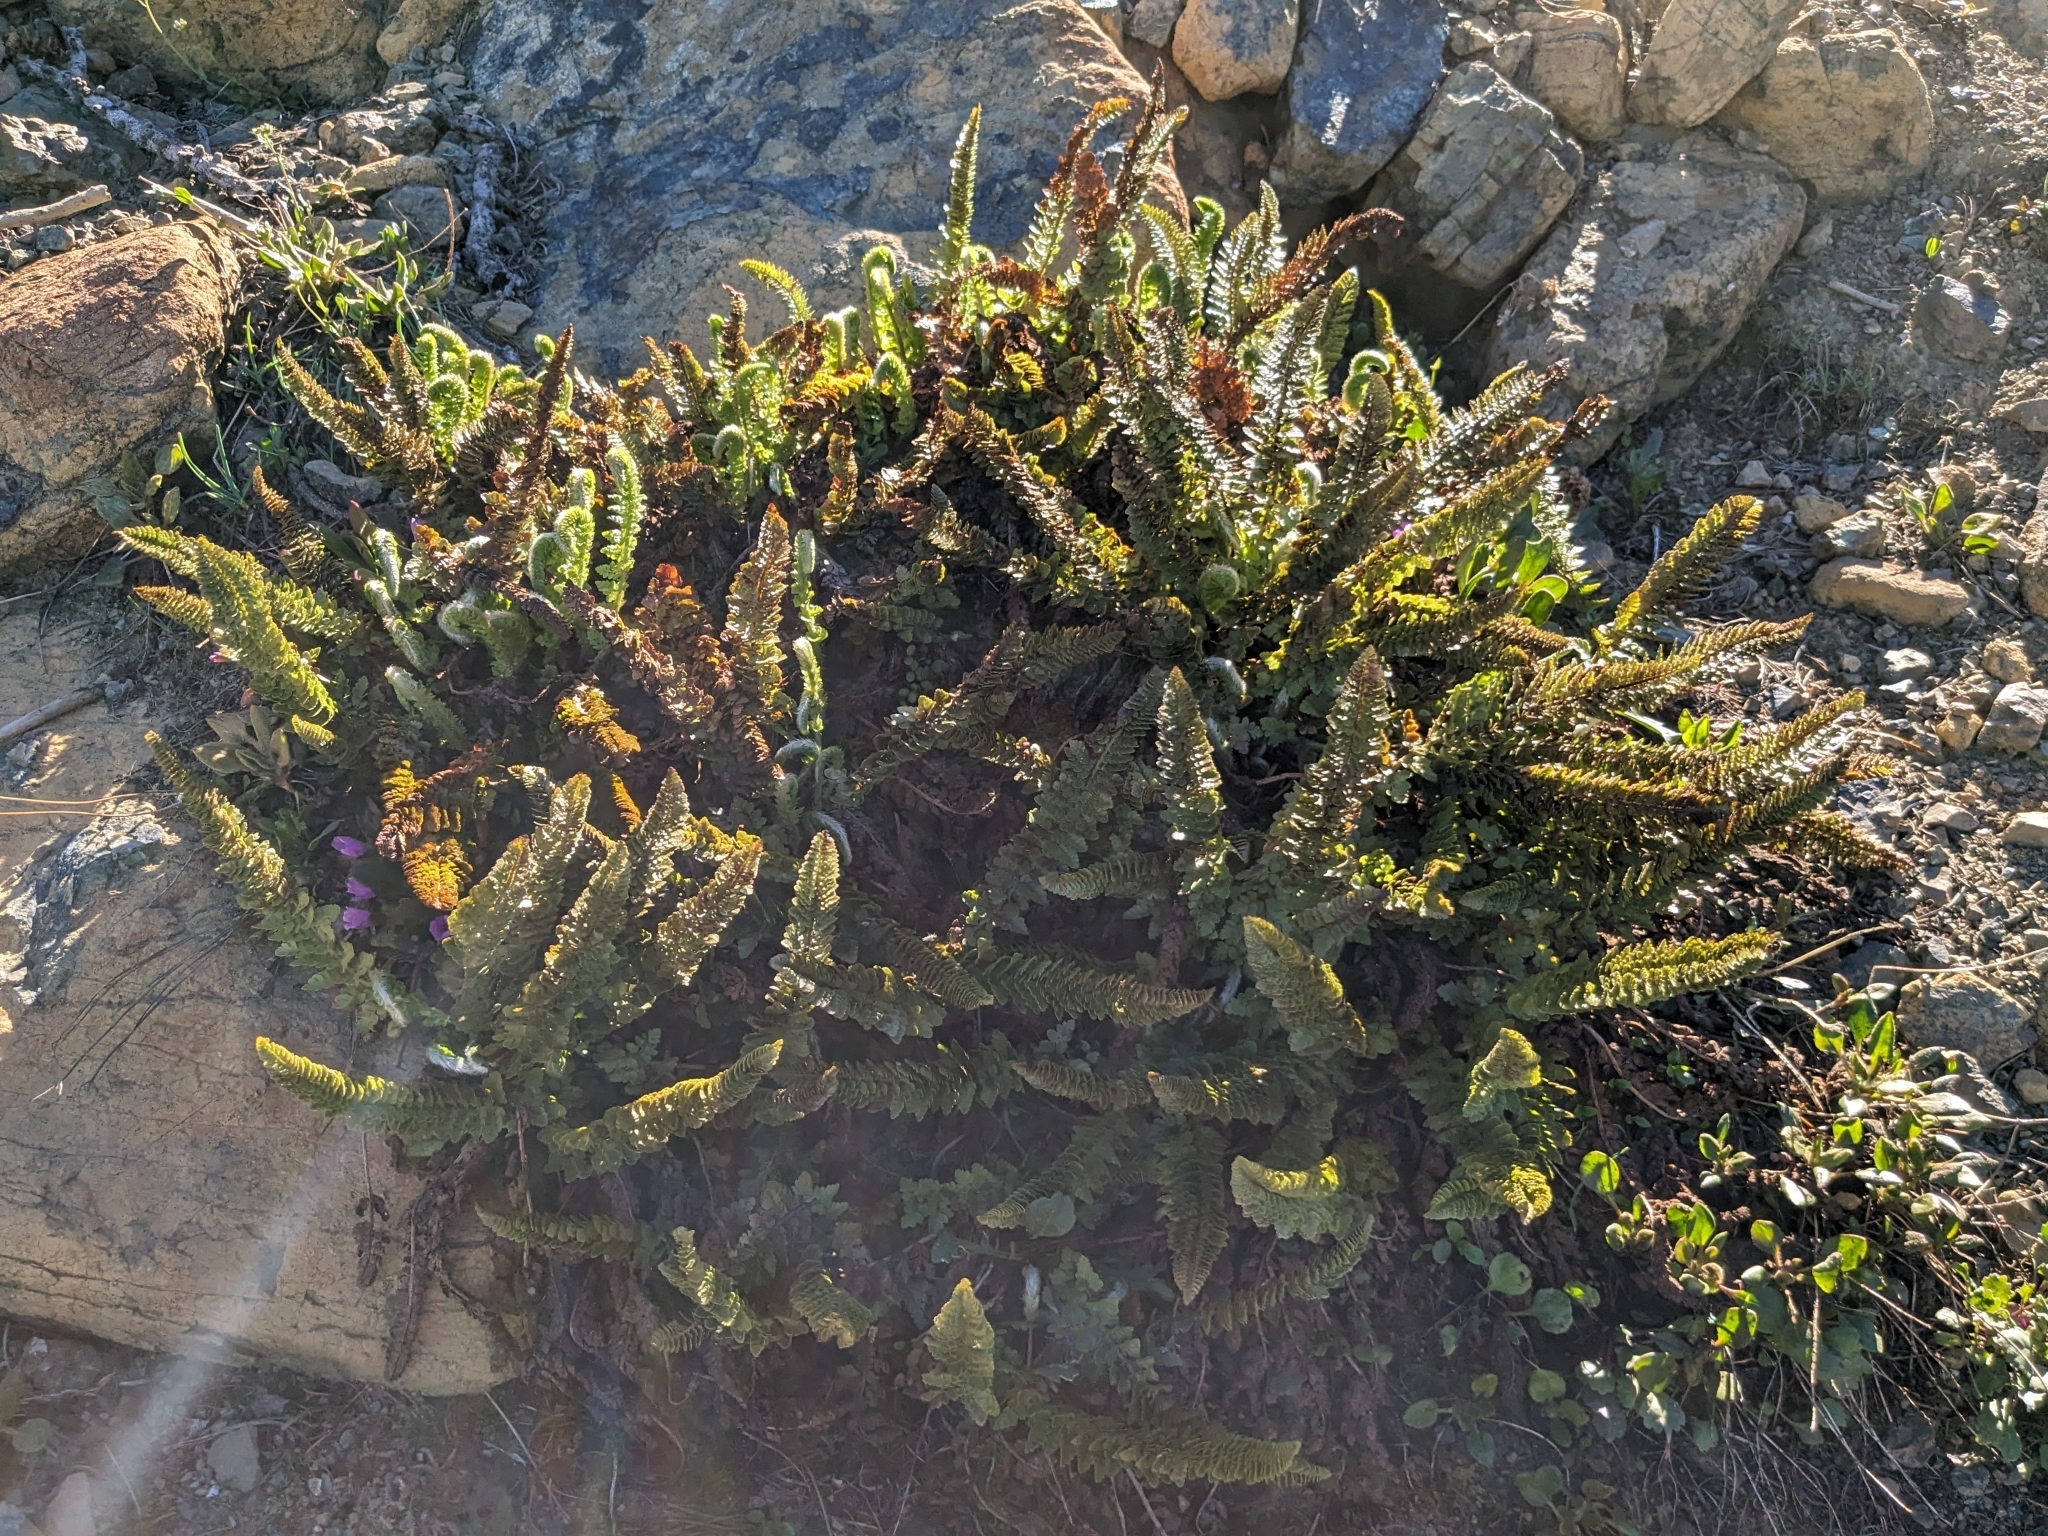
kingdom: Plantae
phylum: Tracheophyta
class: Polypodiopsida
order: Polypodiales
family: Dryopteridaceae
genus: Polystichum
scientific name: Polystichum lemmonii
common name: Lemmon's holly fern
